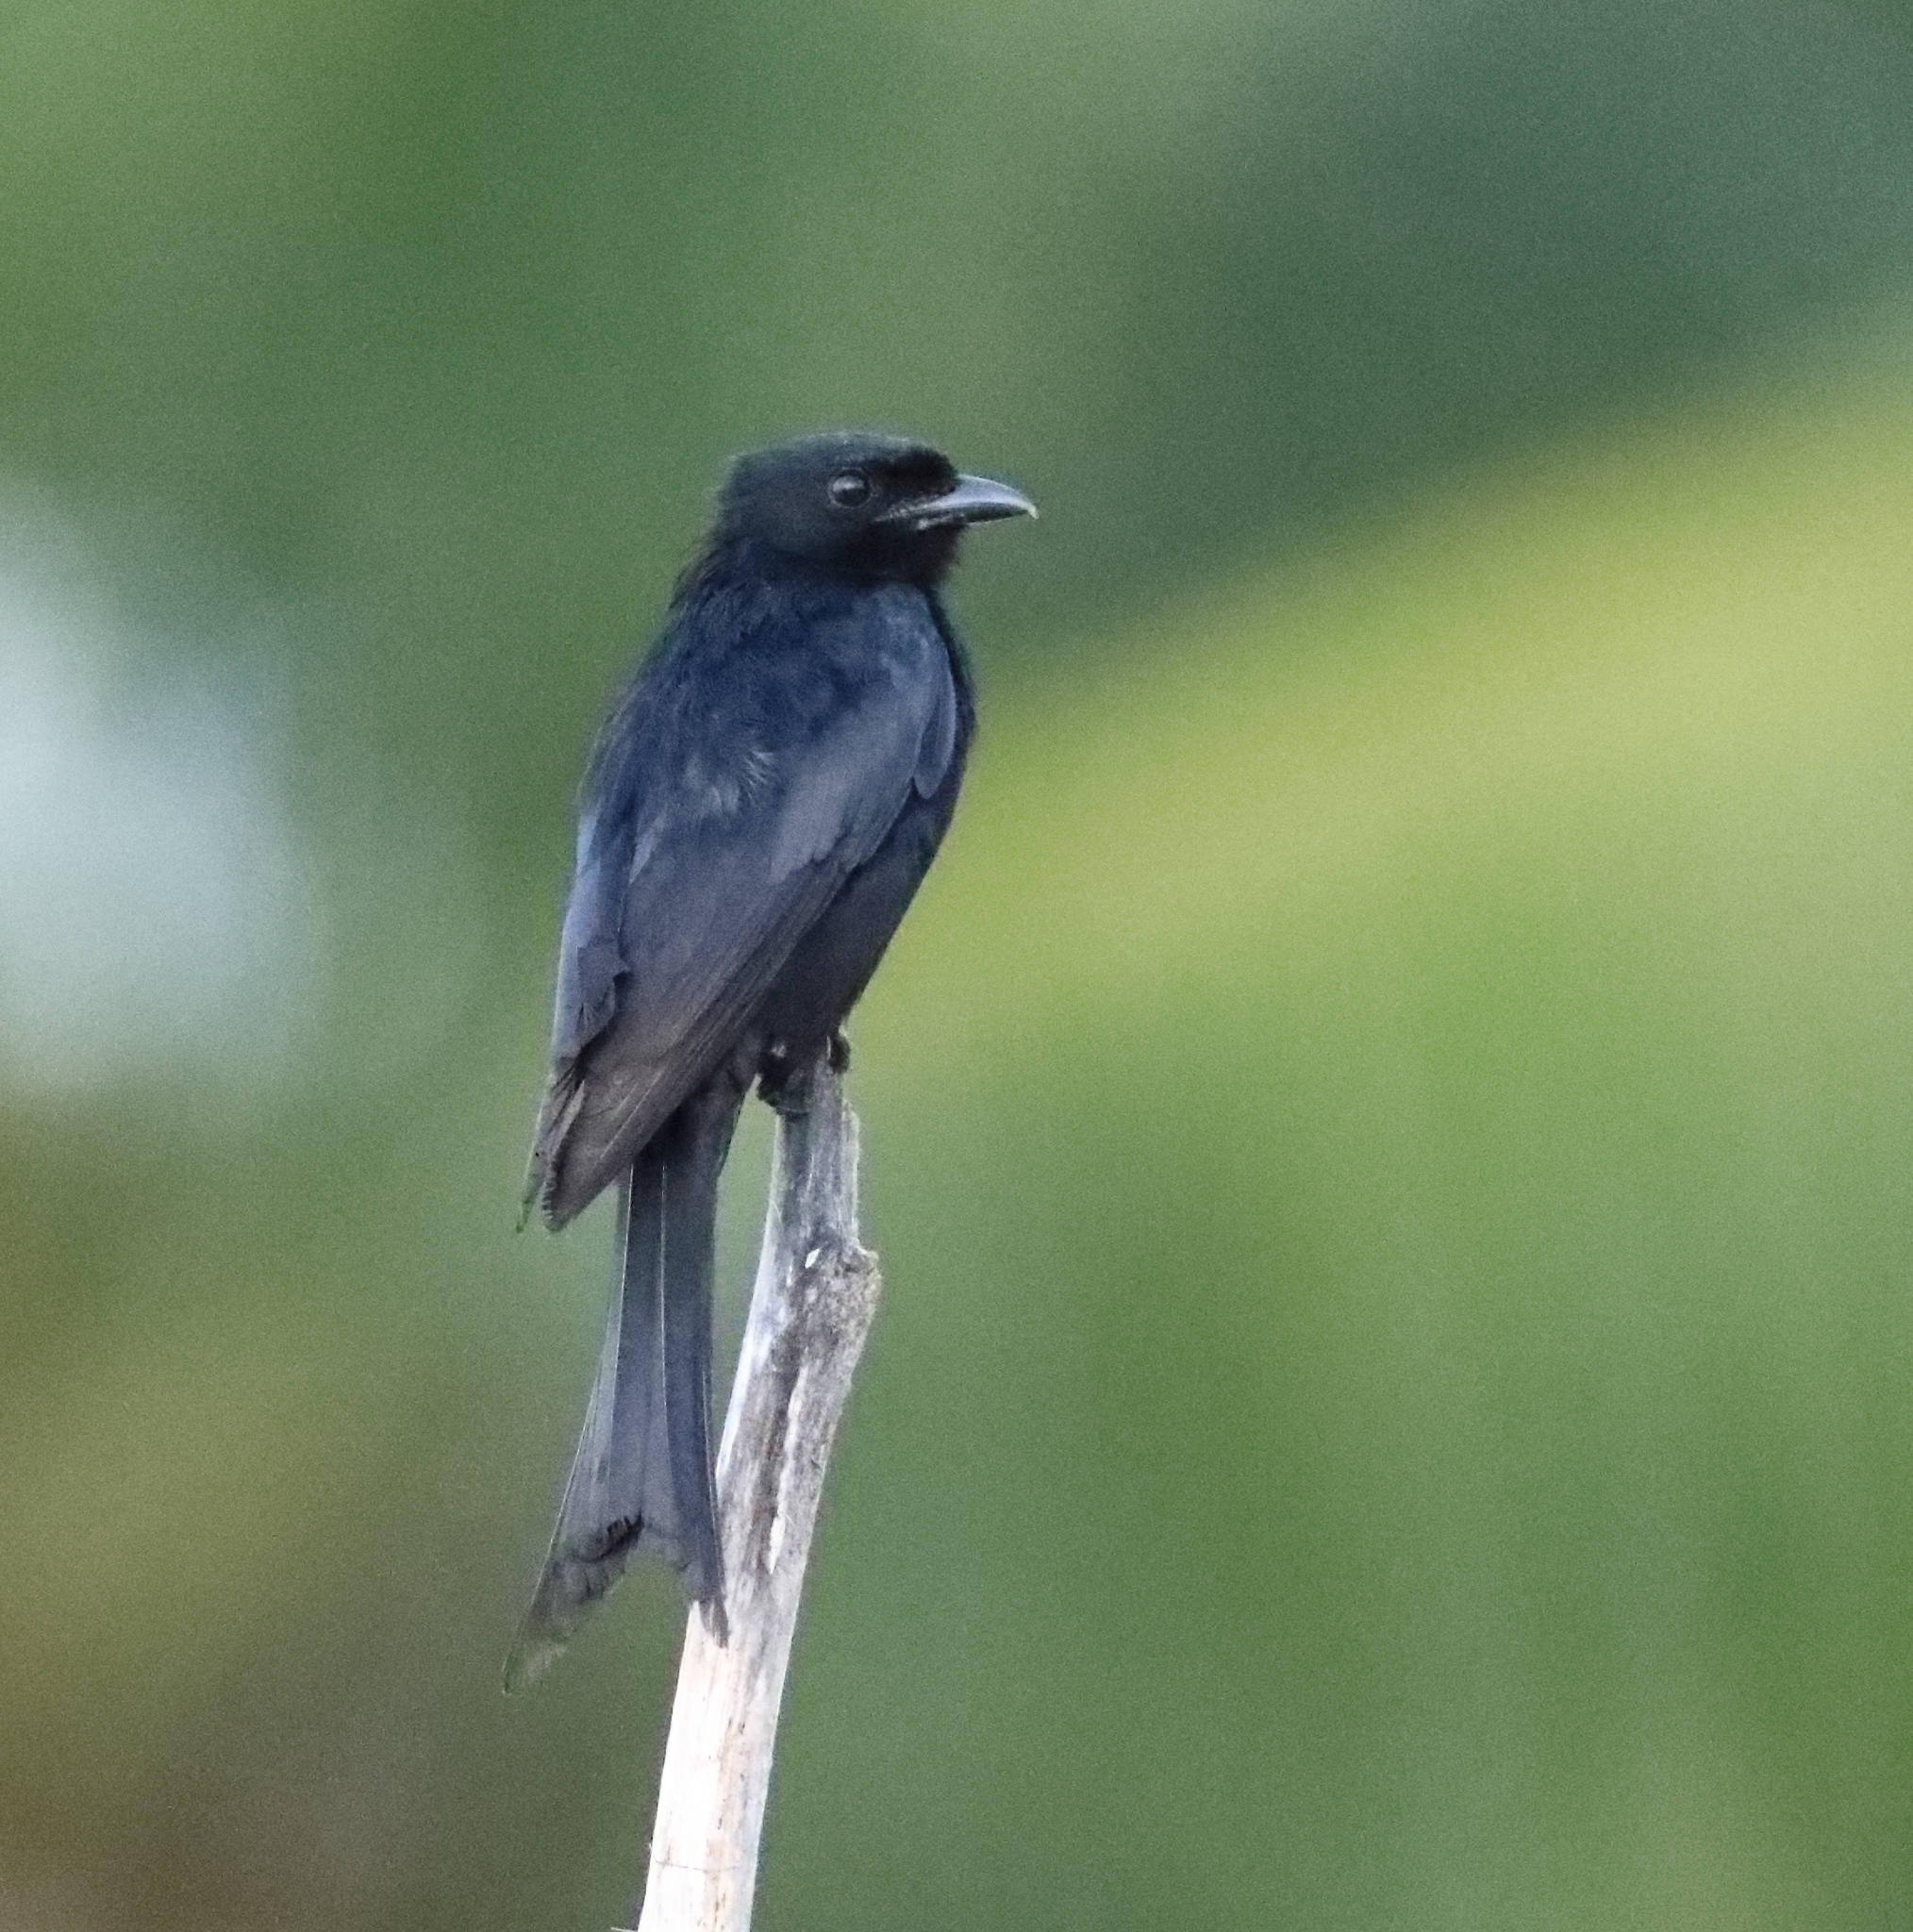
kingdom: Animalia
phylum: Chordata
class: Aves
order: Passeriformes
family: Dicruridae
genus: Dicrurus
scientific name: Dicrurus adsimilis
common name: Fork-tailed drongo
